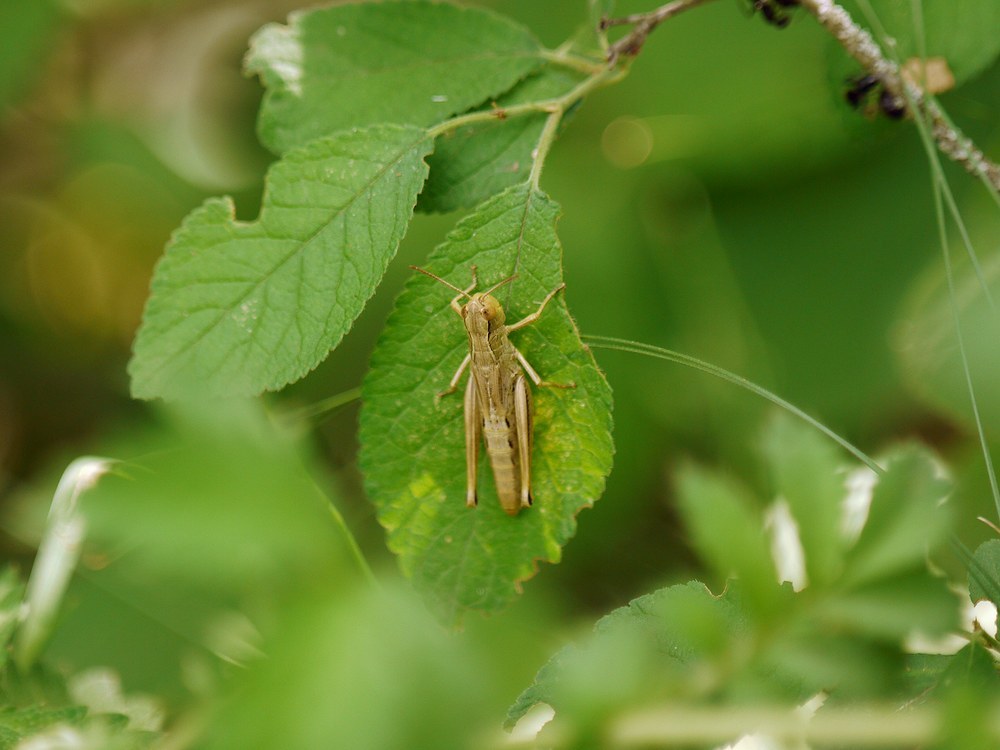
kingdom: Animalia
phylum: Arthropoda
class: Insecta
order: Orthoptera
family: Acrididae
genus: Pseudochorthippus
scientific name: Pseudochorthippus parallelus
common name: Meadow grasshopper
